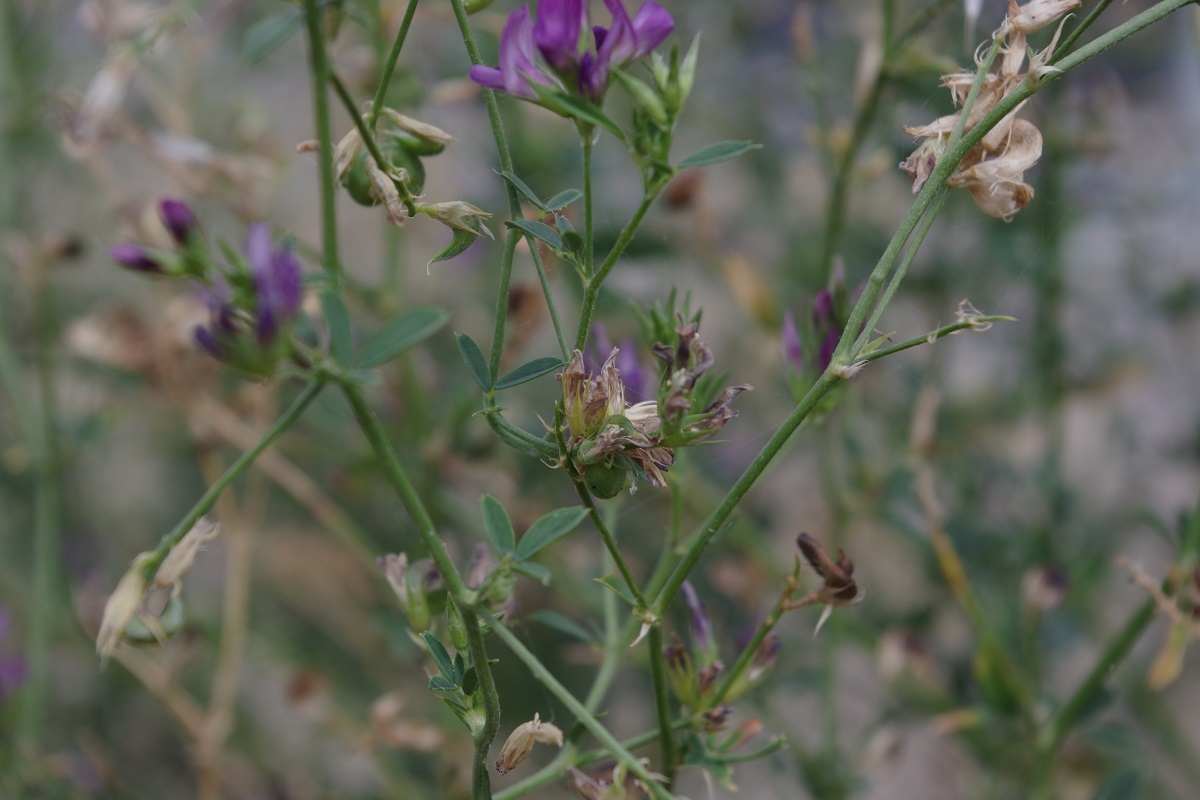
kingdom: Plantae
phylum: Tracheophyta
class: Magnoliopsida
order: Fabales
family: Fabaceae
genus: Medicago
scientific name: Medicago sativa
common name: Alfalfa
